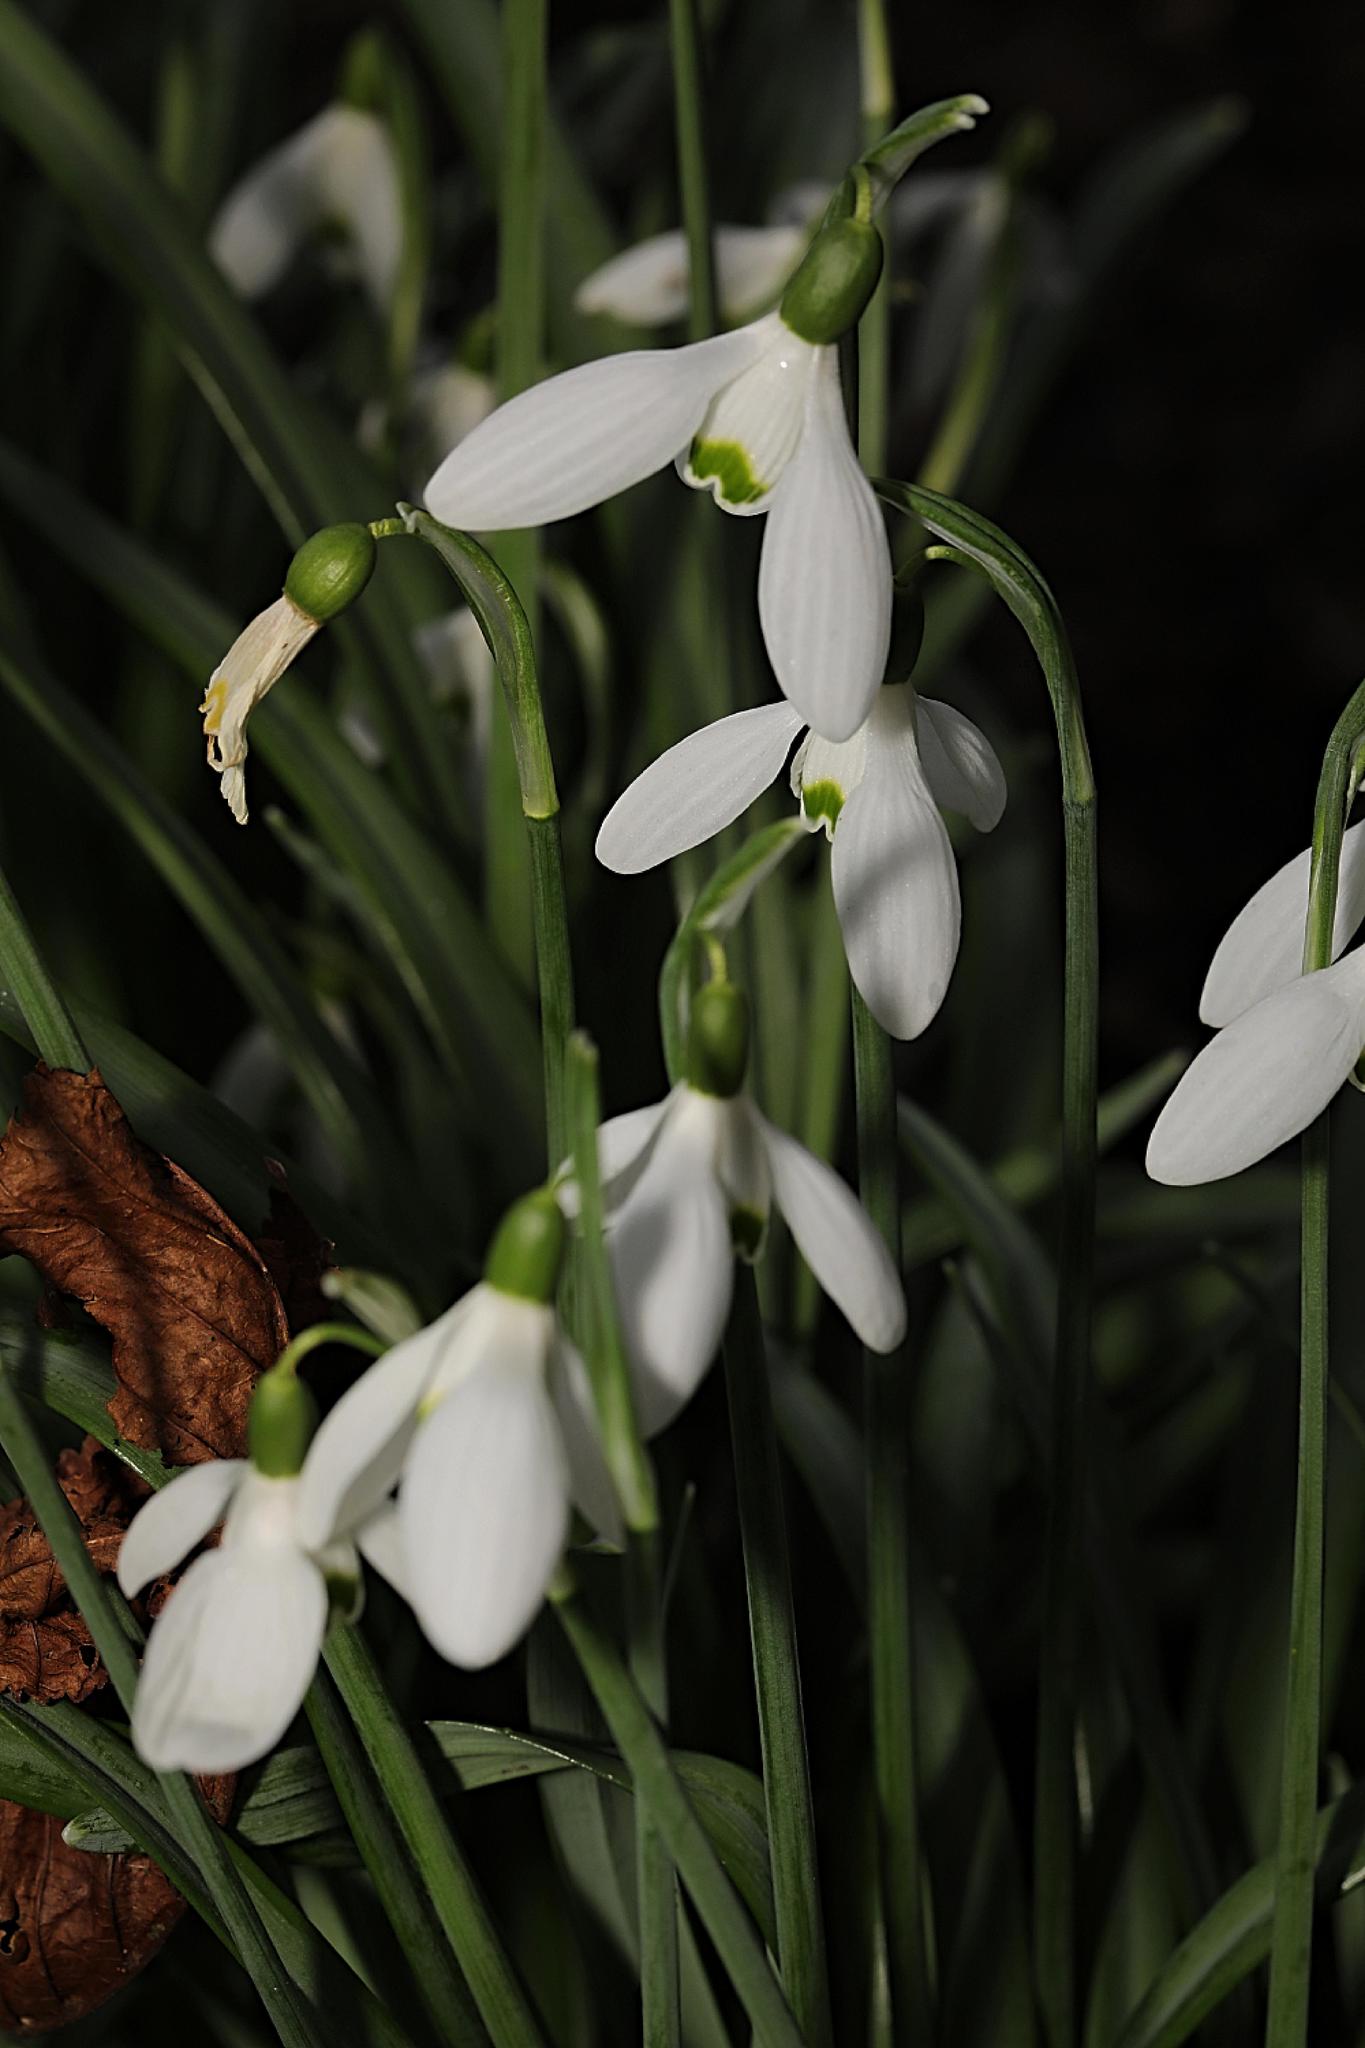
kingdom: Plantae
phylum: Tracheophyta
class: Liliopsida
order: Asparagales
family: Amaryllidaceae
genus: Galanthus
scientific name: Galanthus nivalis
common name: Snowdrop
